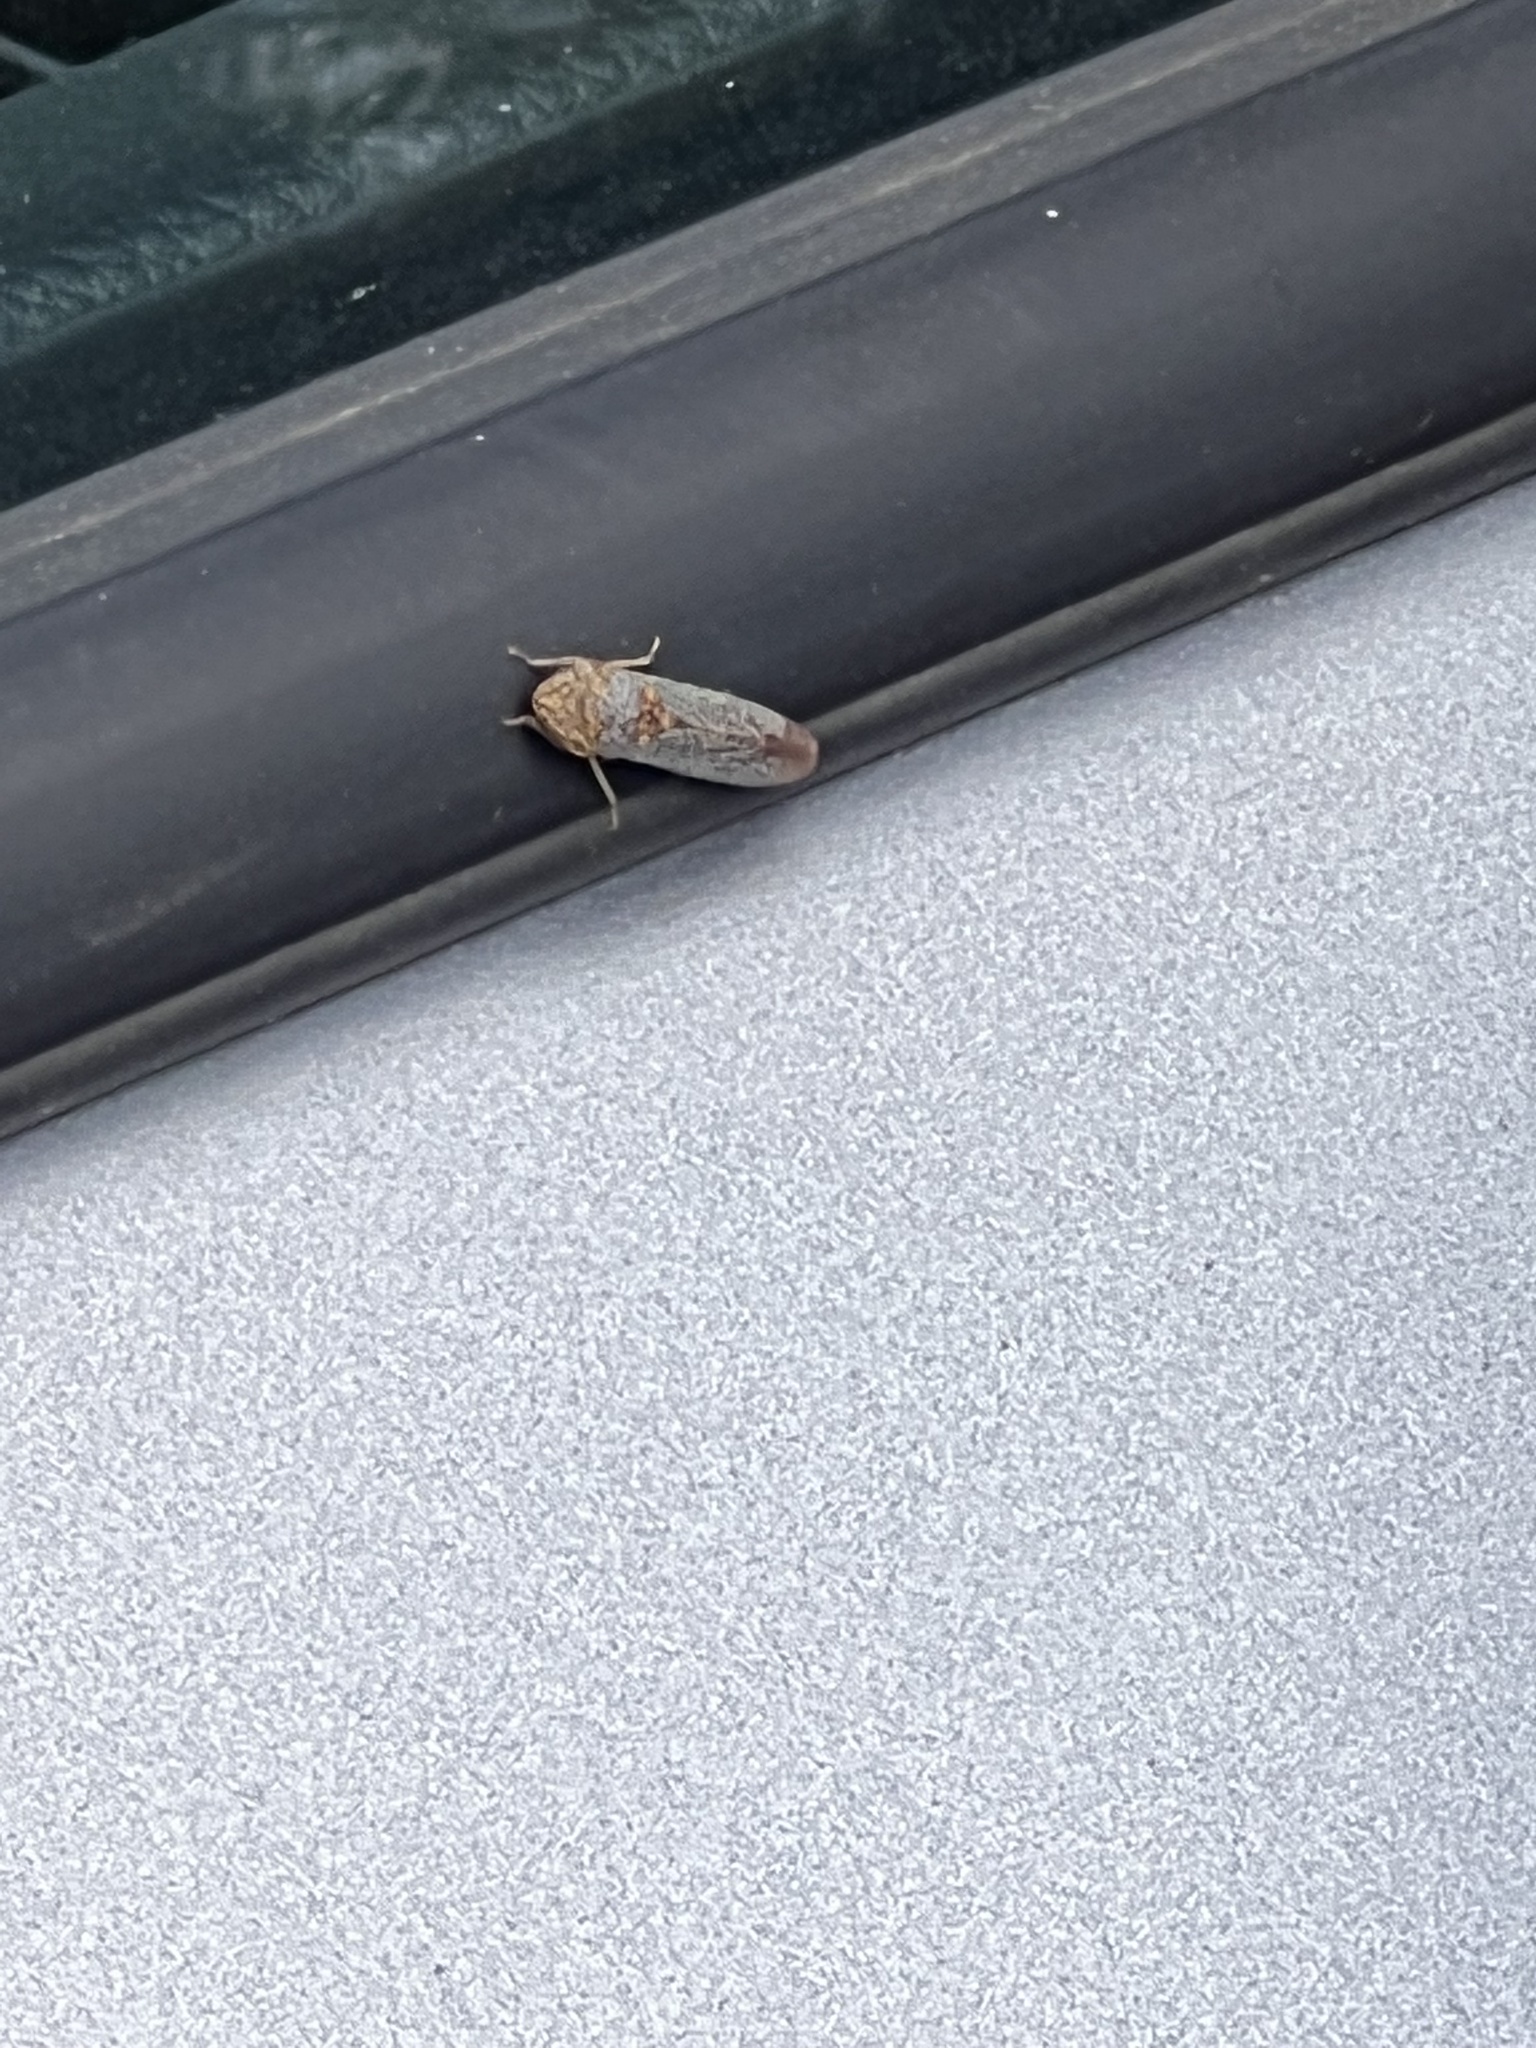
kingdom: Animalia
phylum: Arthropoda
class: Insecta
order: Hemiptera
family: Cicadellidae
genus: Oncometopia
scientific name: Oncometopia orbona
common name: Broad-headed sharpshooter
